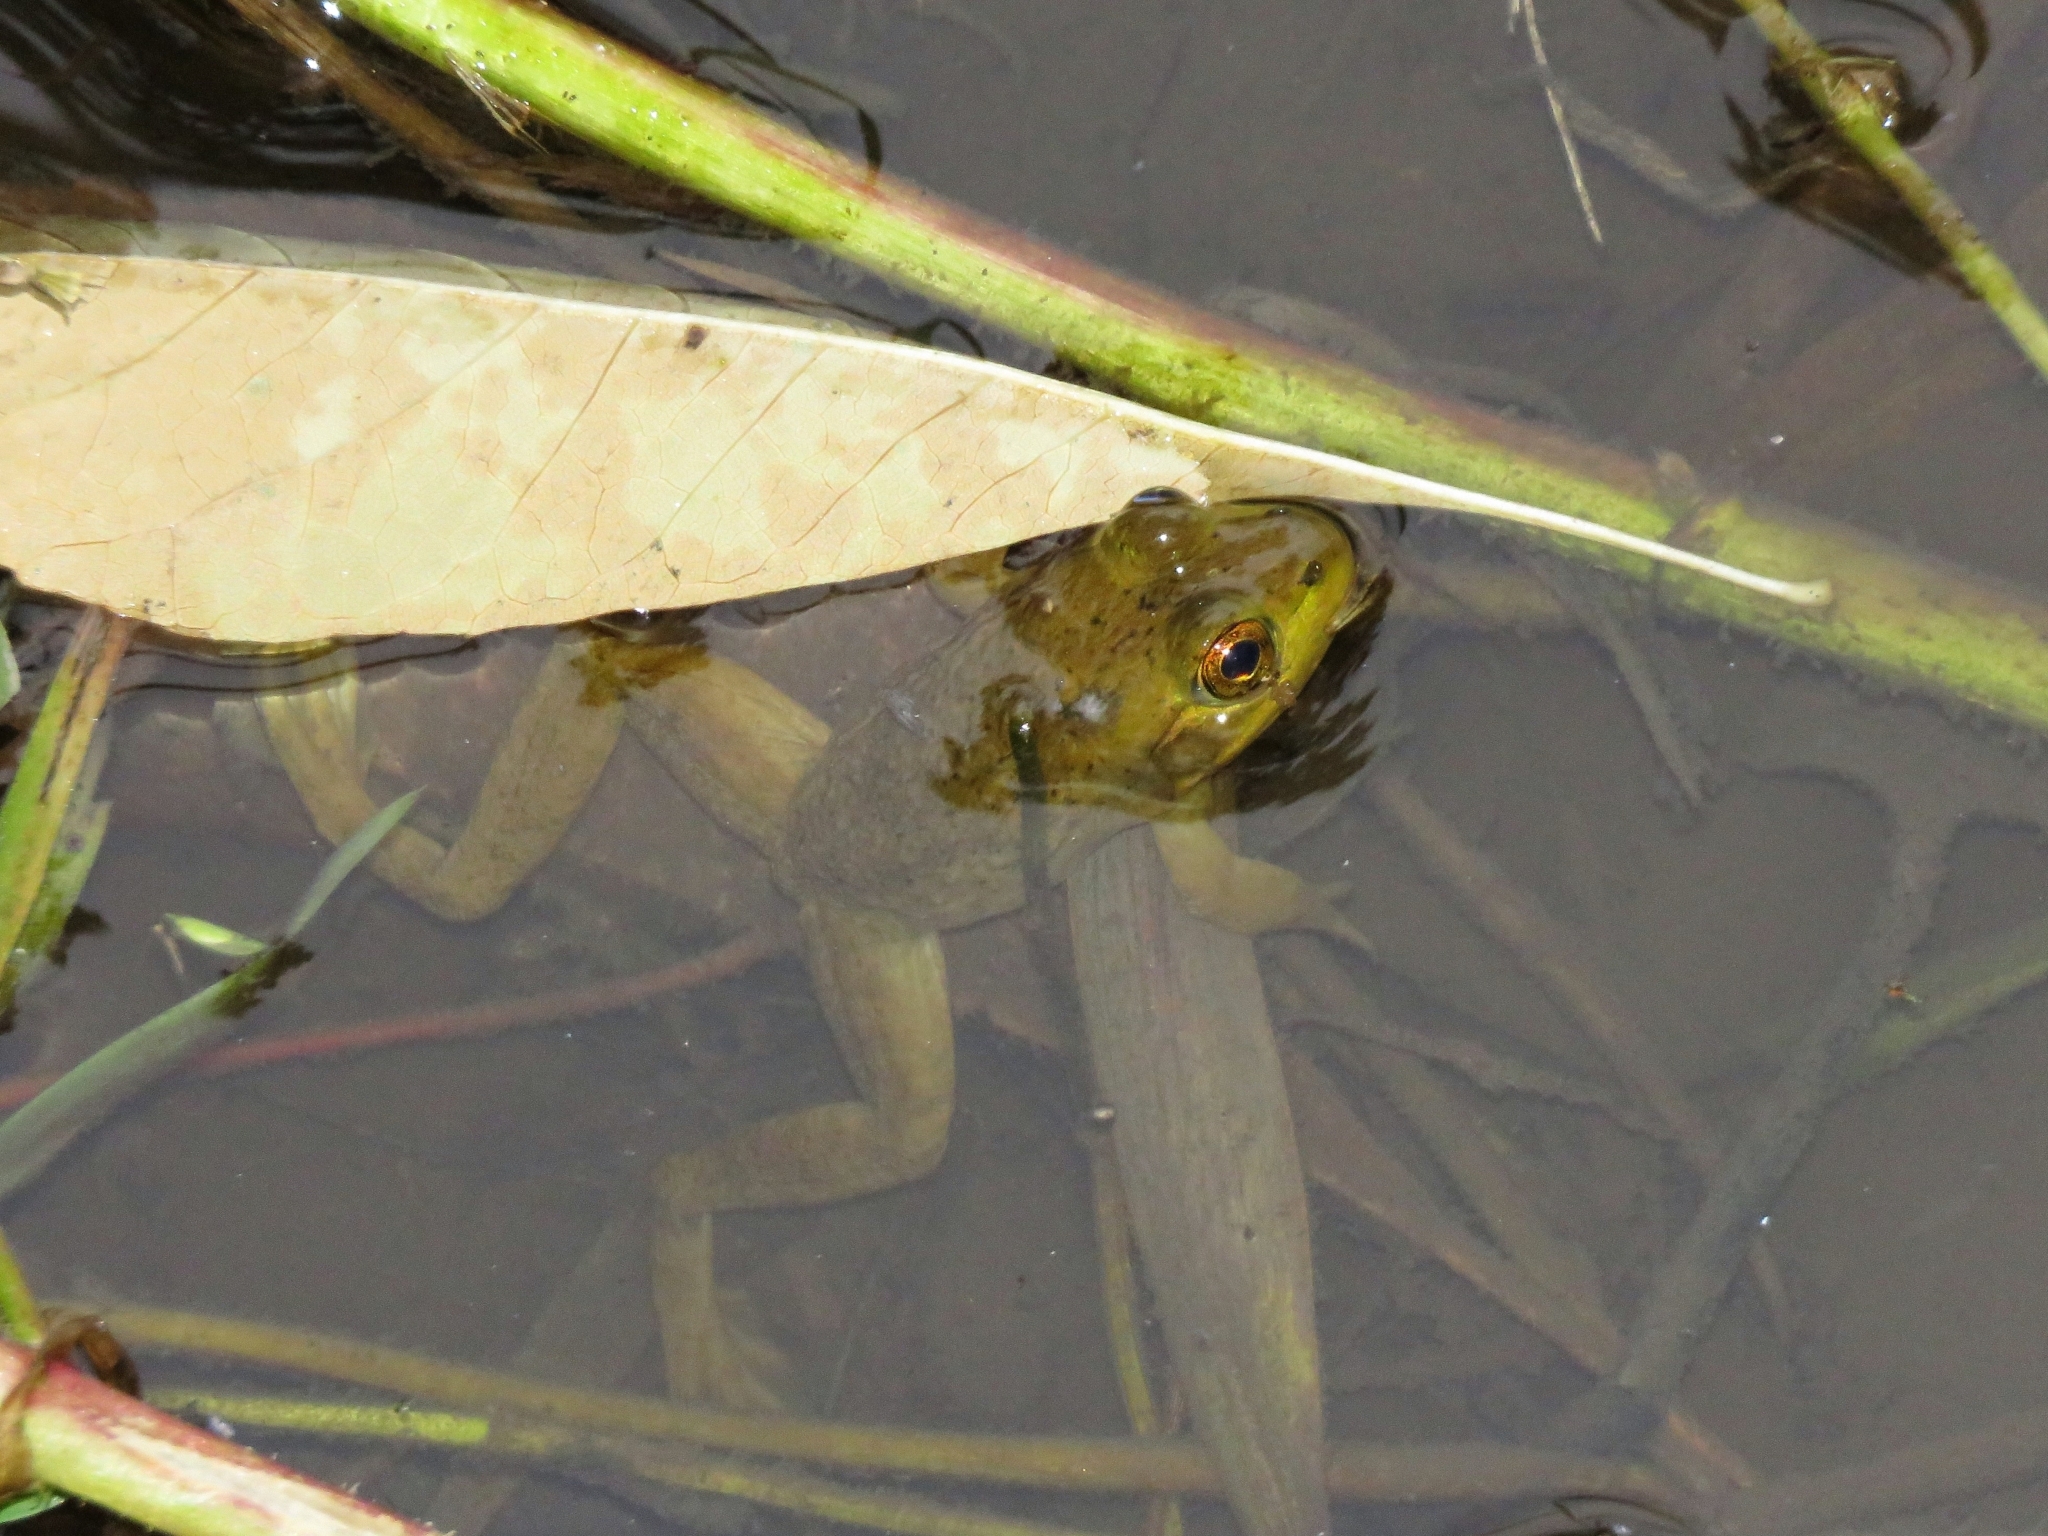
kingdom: Animalia
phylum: Chordata
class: Amphibia
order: Anura
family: Ranidae
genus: Lithobates
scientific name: Lithobates catesbeianus
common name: American bullfrog
